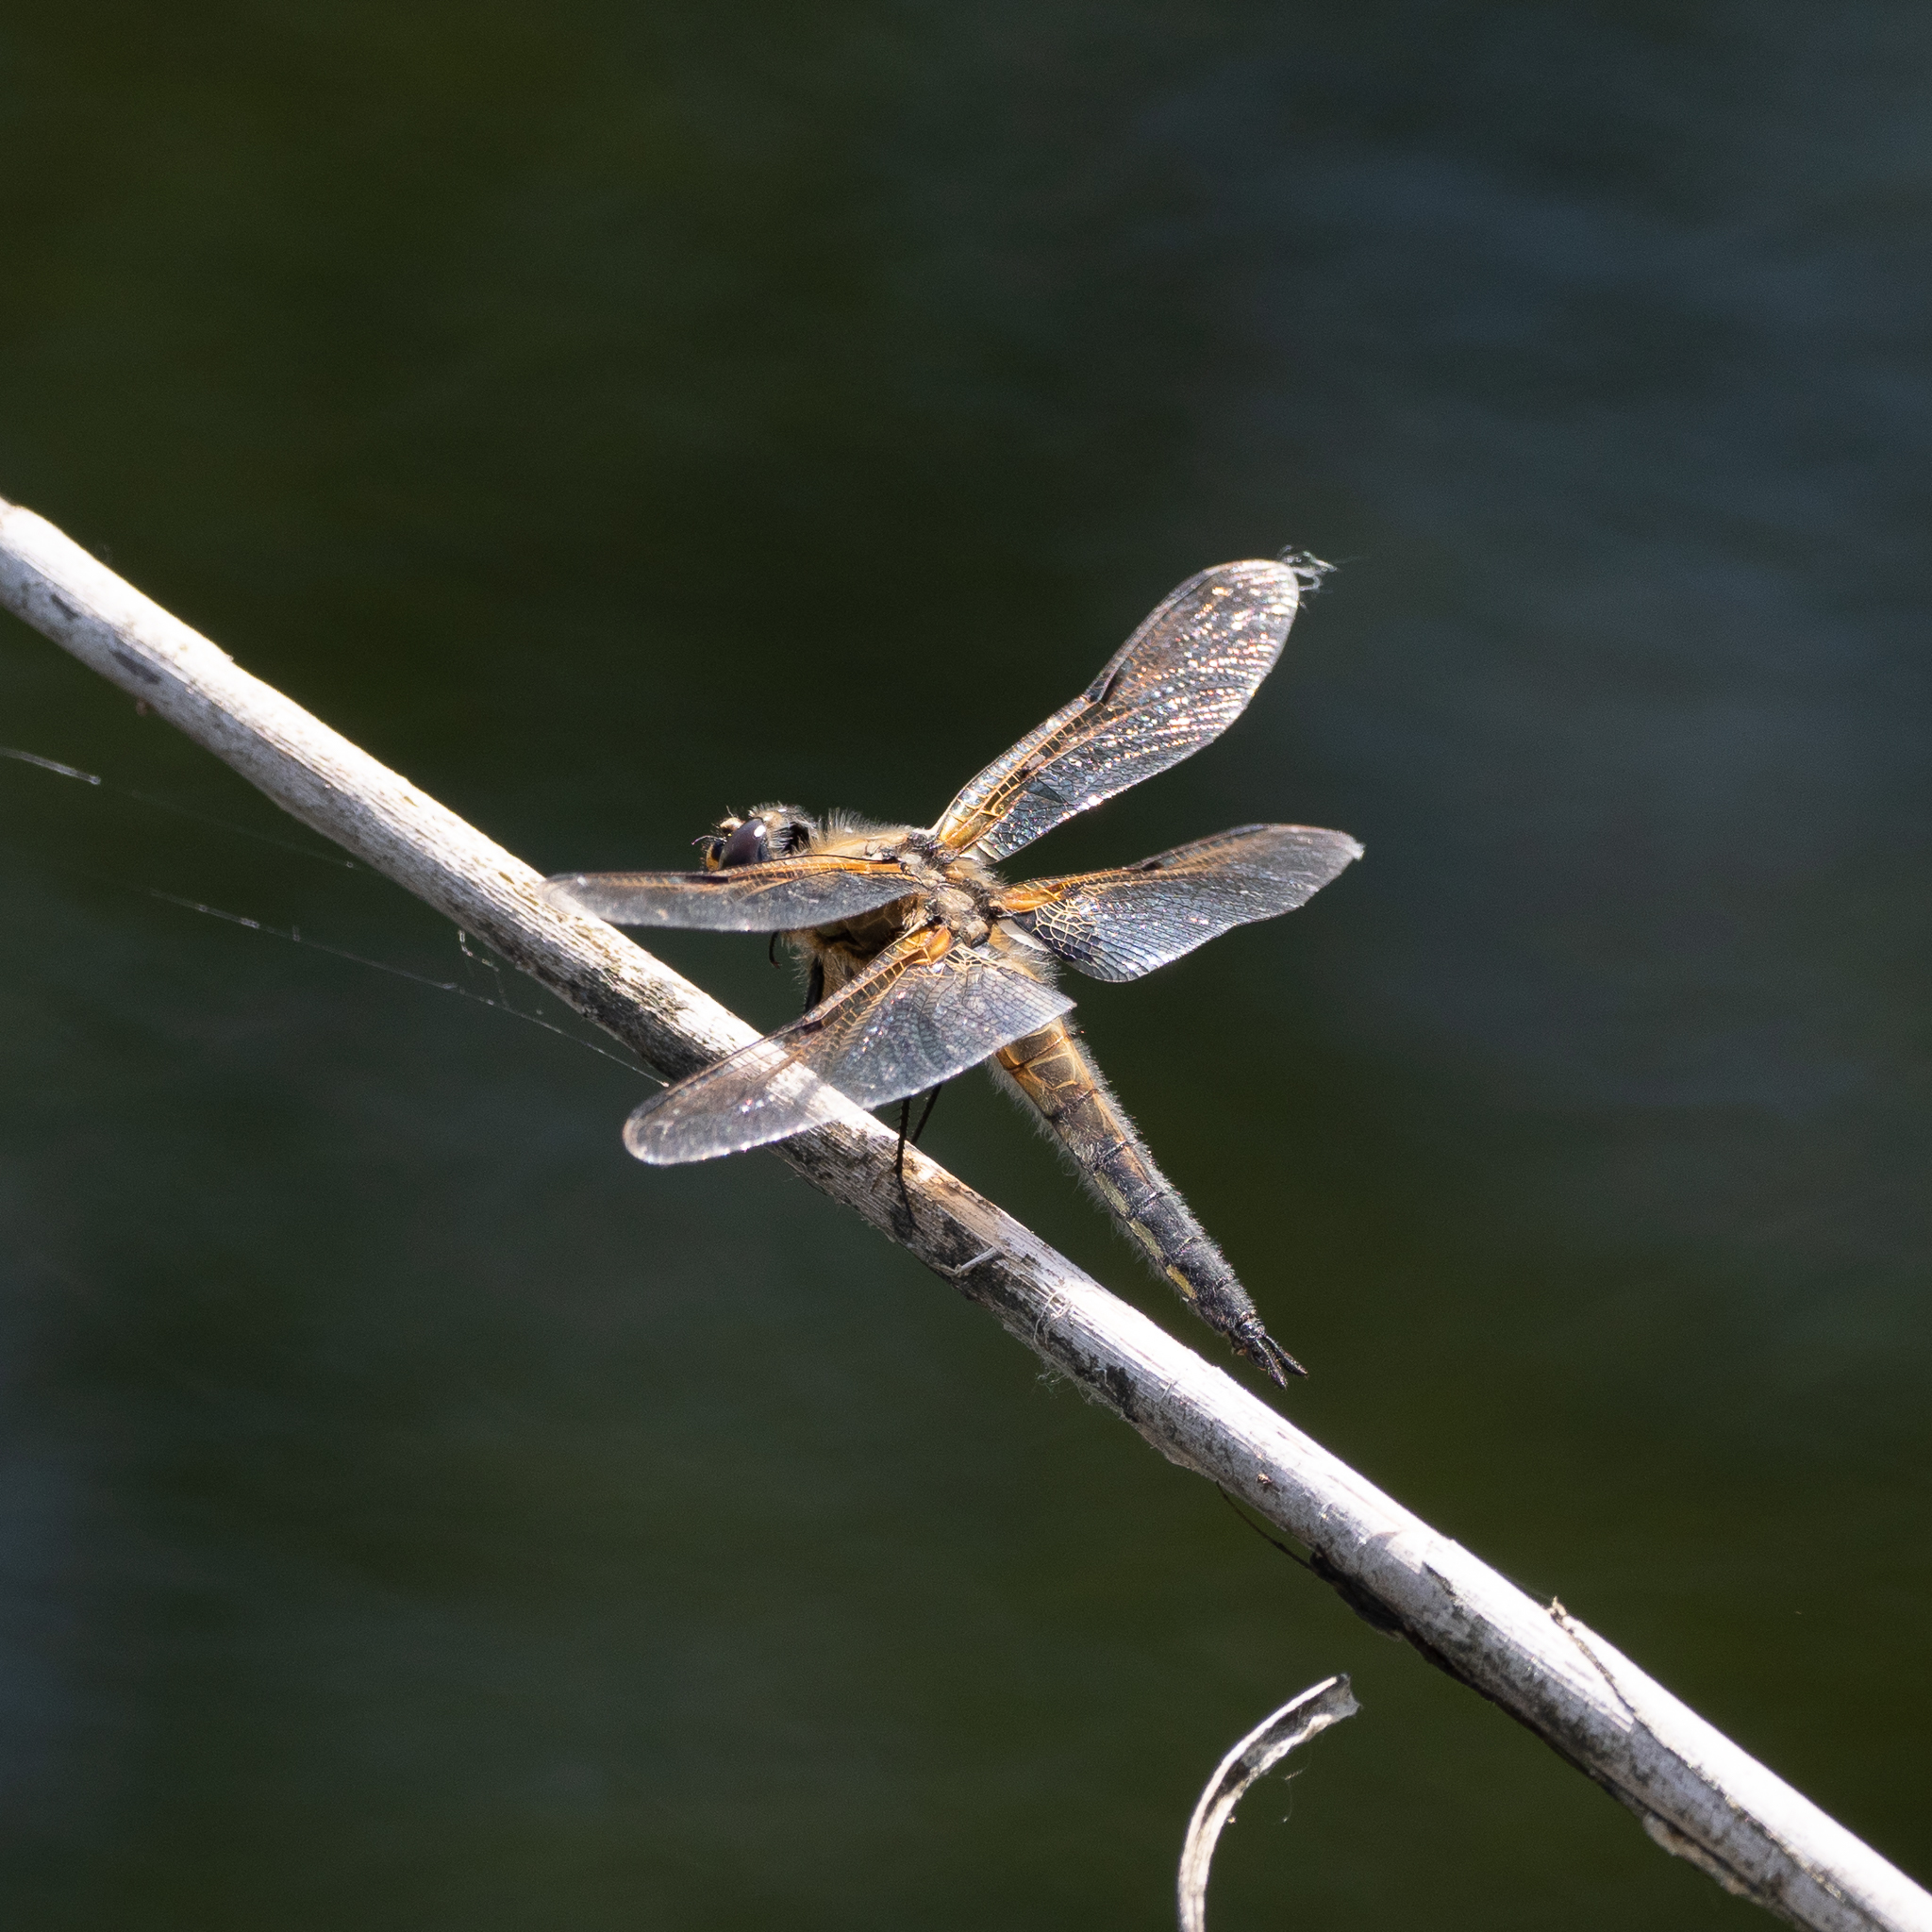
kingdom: Animalia
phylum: Arthropoda
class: Insecta
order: Odonata
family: Libellulidae
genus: Libellula
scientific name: Libellula quadrimaculata
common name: Four-spotted chaser
